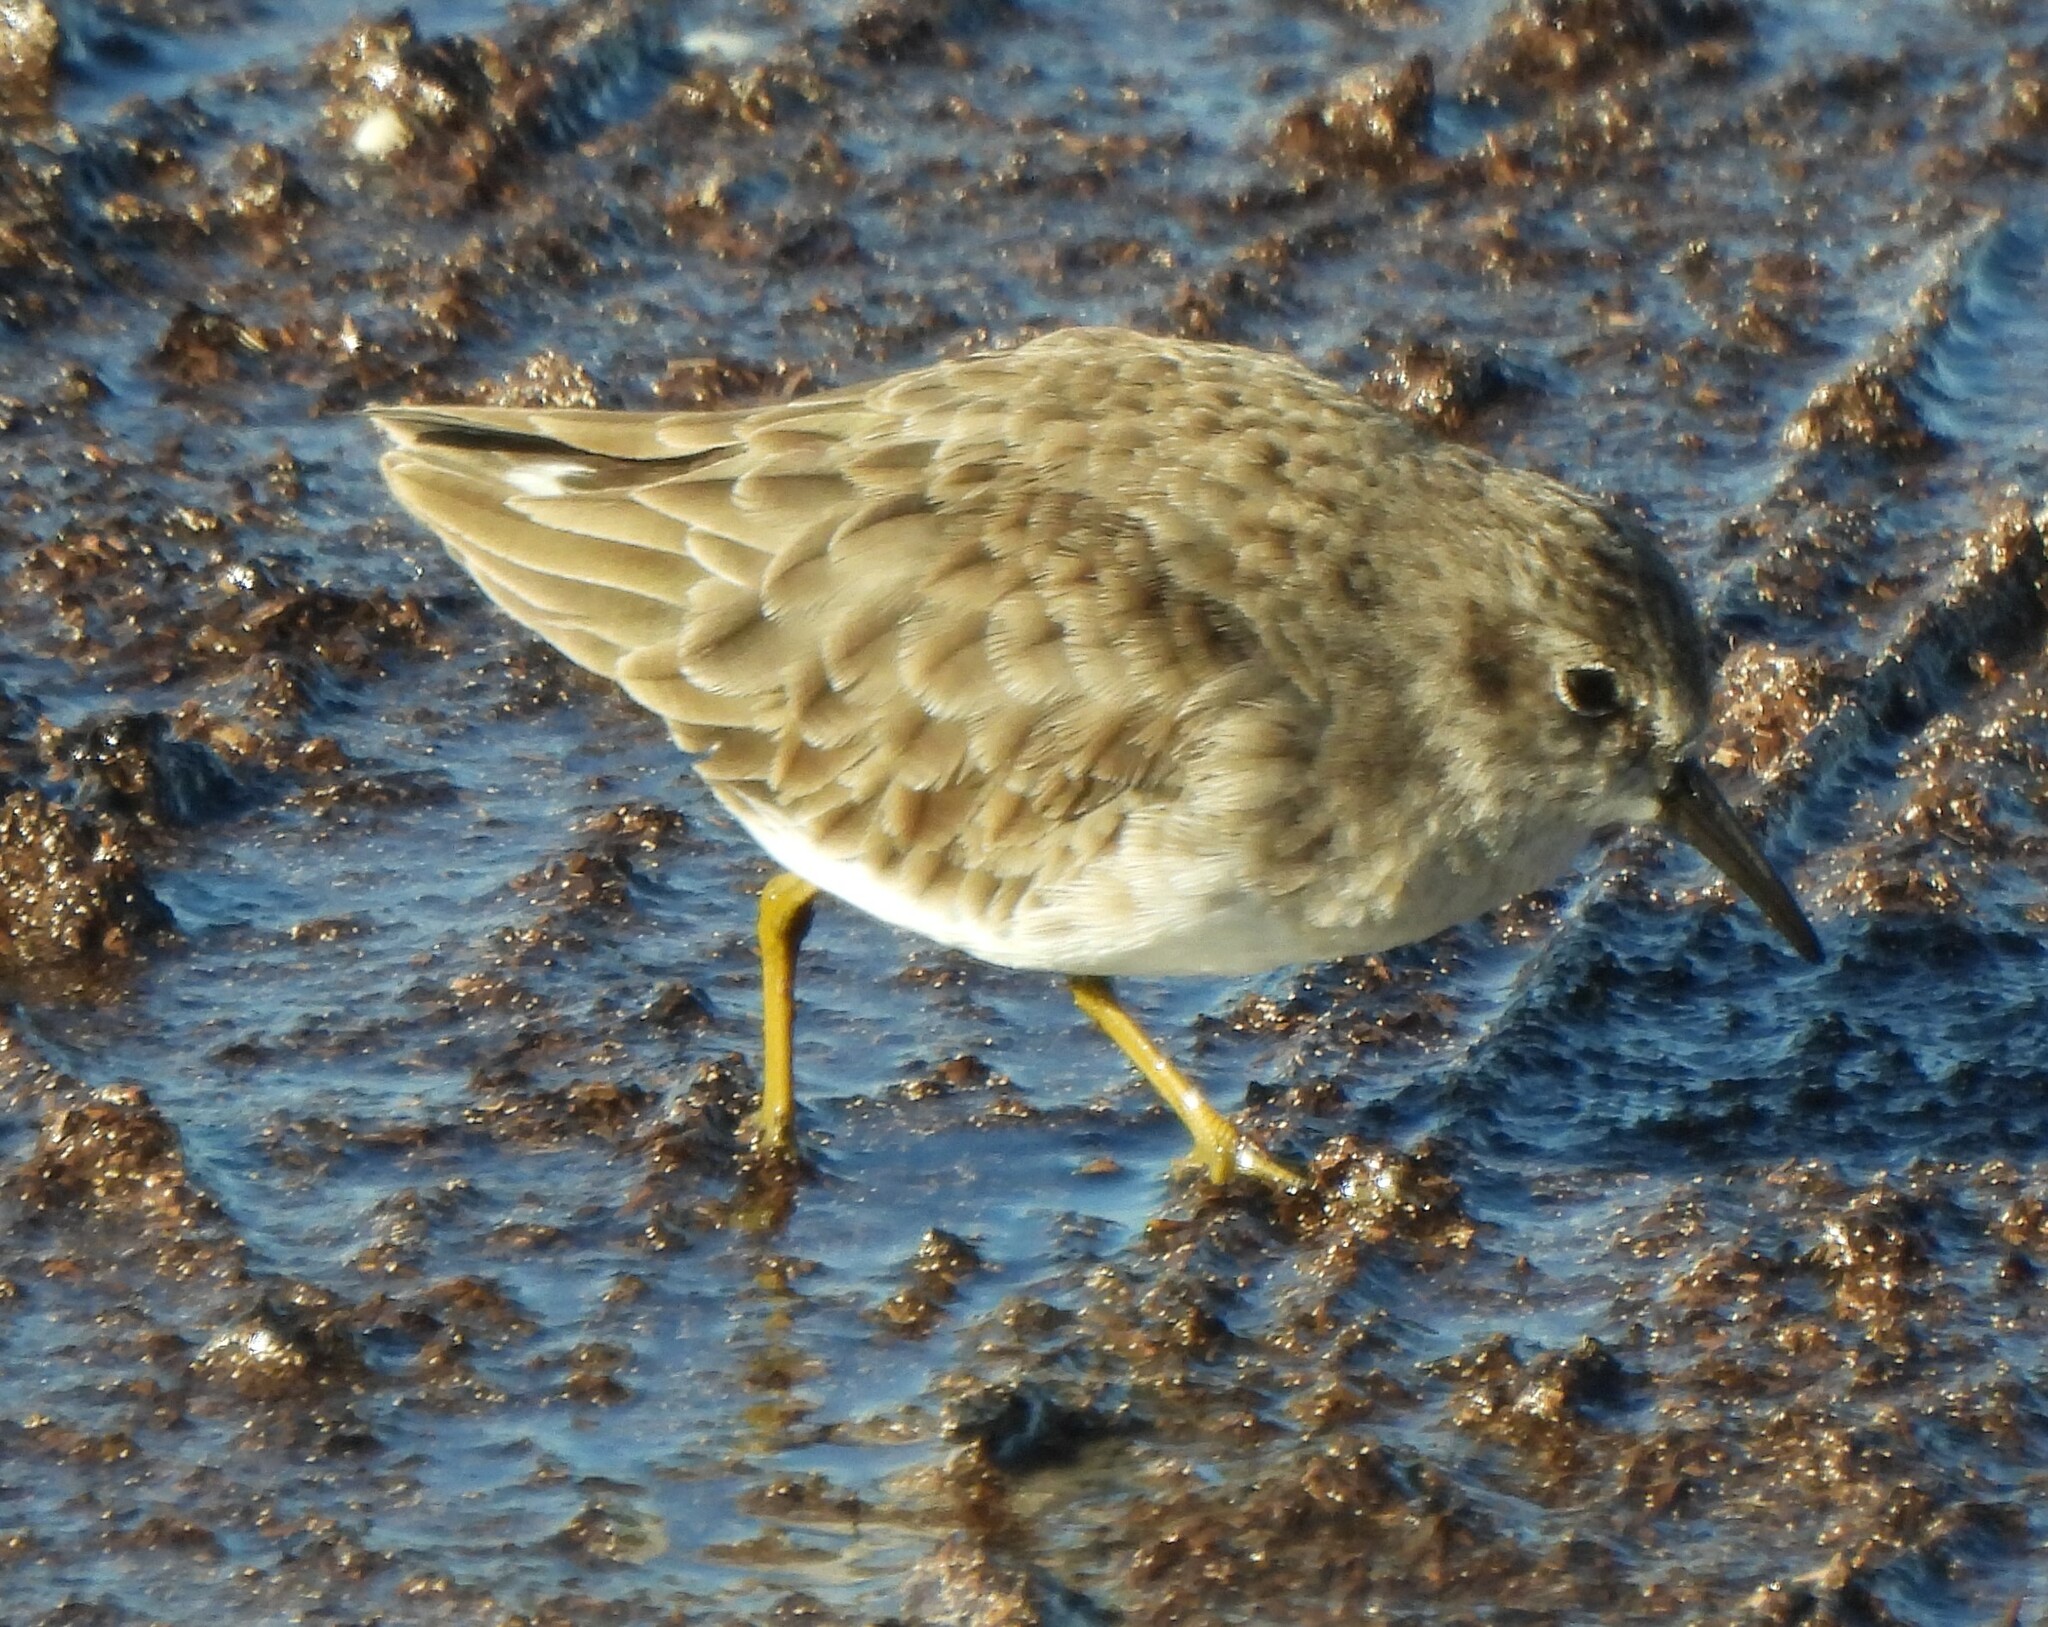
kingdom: Animalia
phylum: Chordata
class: Aves
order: Charadriiformes
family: Scolopacidae
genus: Calidris
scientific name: Calidris minutilla
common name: Least sandpiper
